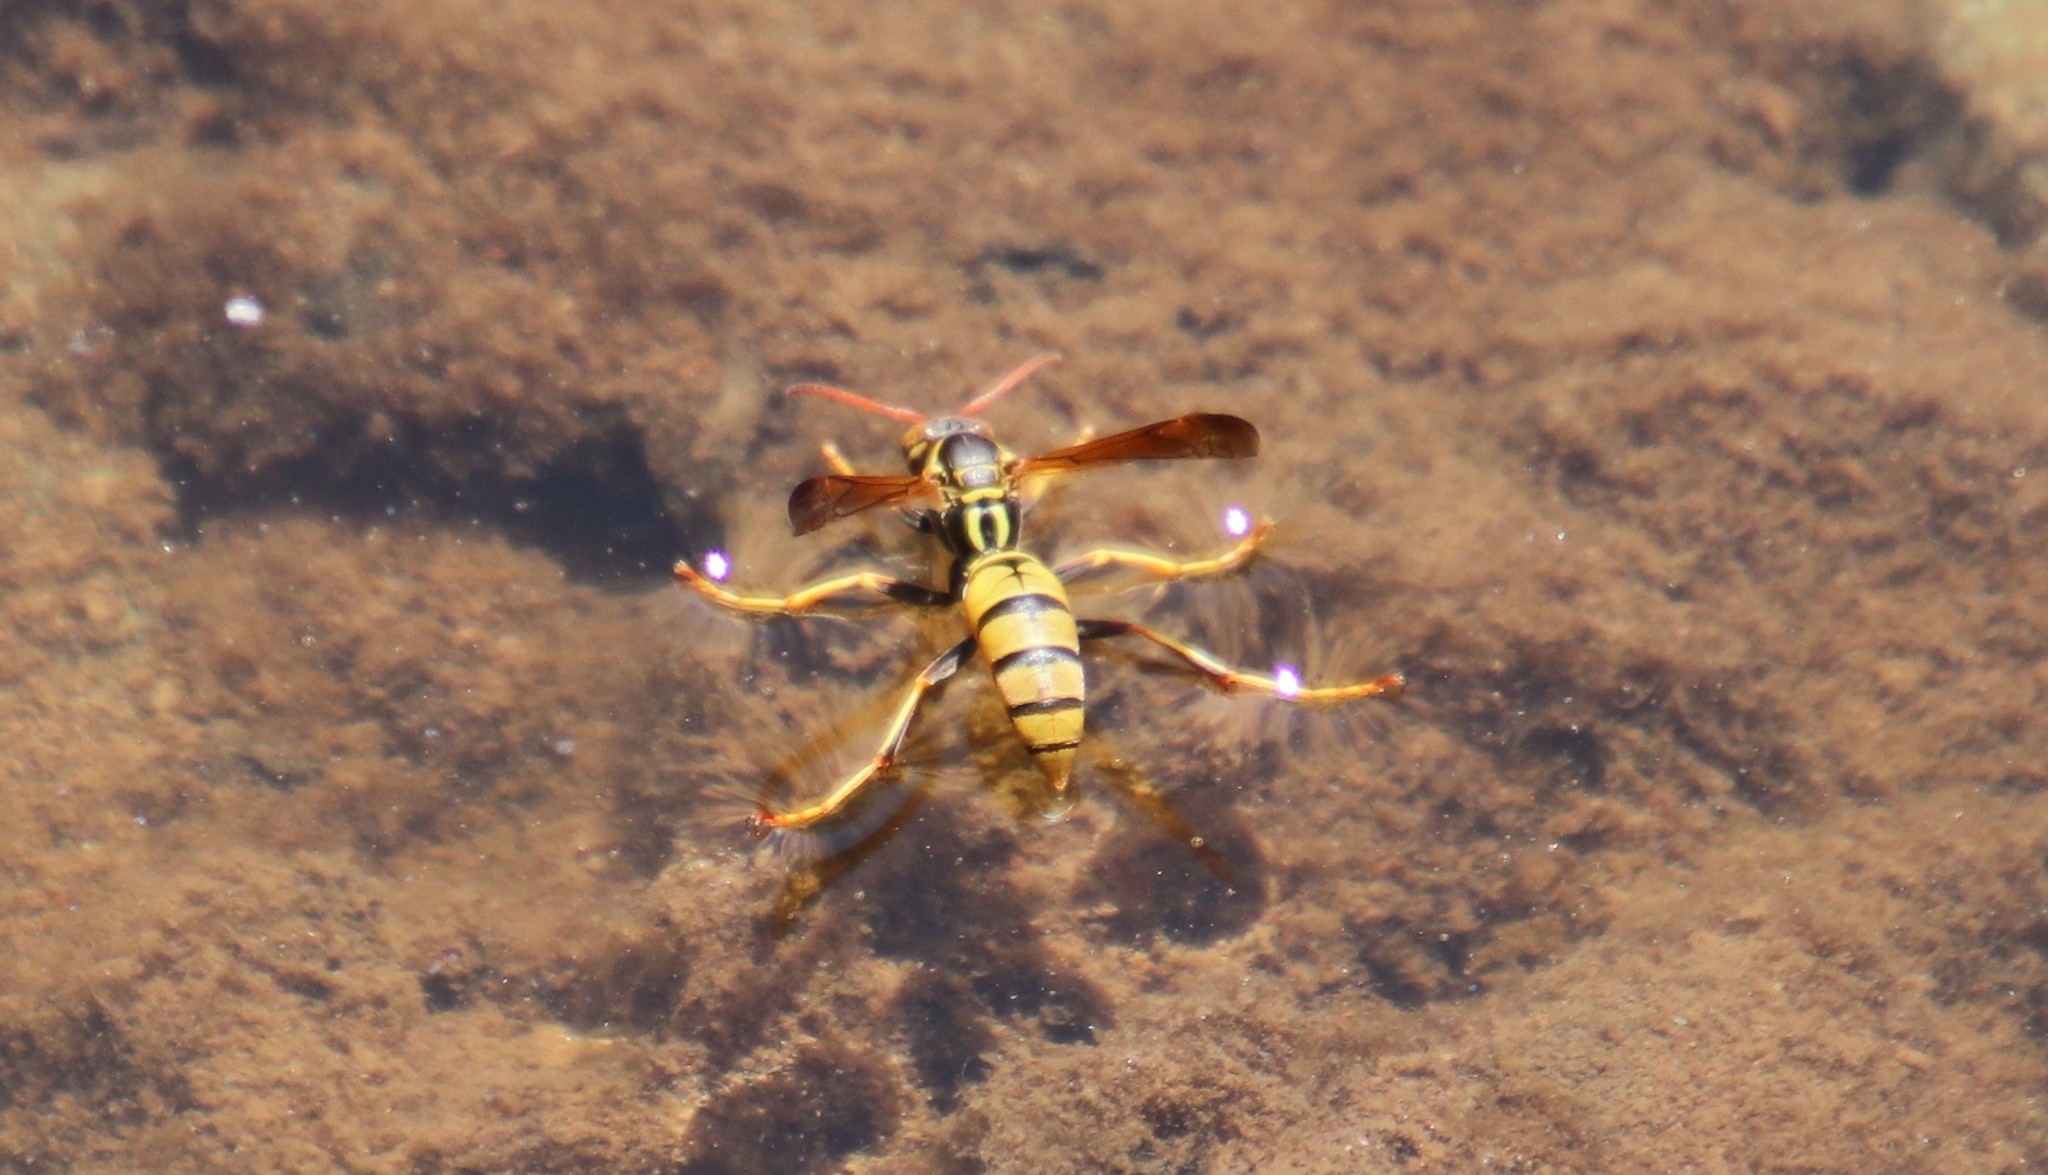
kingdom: Animalia
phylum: Arthropoda
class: Insecta
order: Hymenoptera
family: Eumenidae
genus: Polistes
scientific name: Polistes aurifer
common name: Paper wasp
